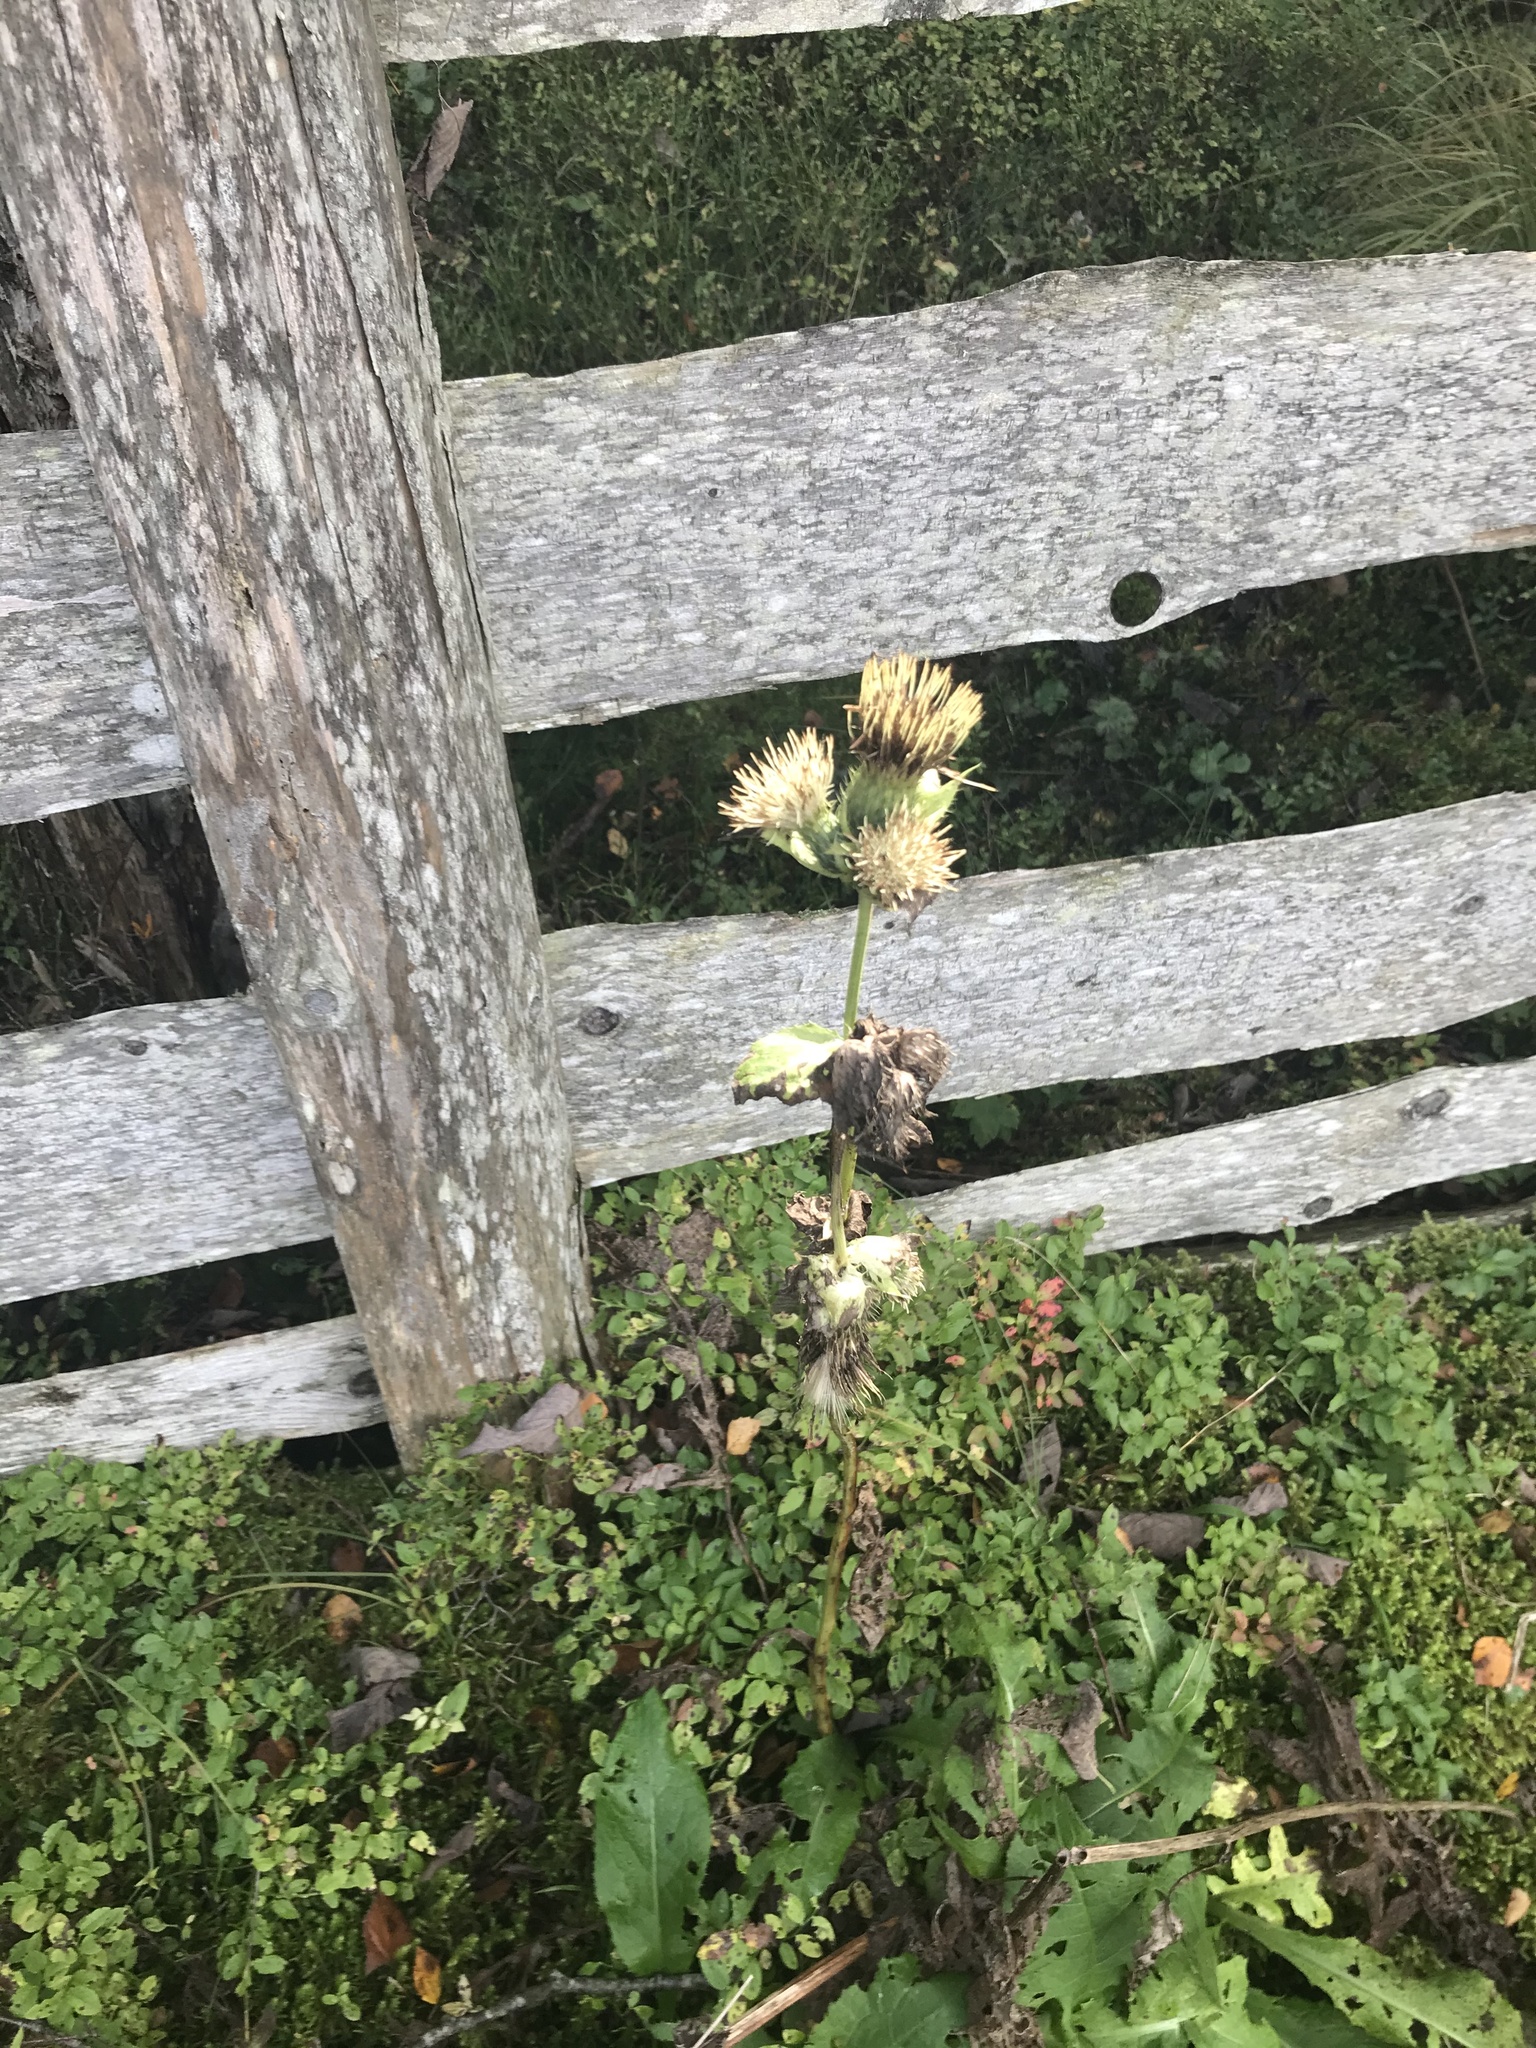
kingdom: Plantae
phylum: Tracheophyta
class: Magnoliopsida
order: Asterales
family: Asteraceae
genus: Cirsium
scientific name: Cirsium oleraceum
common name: Cabbage thistle
